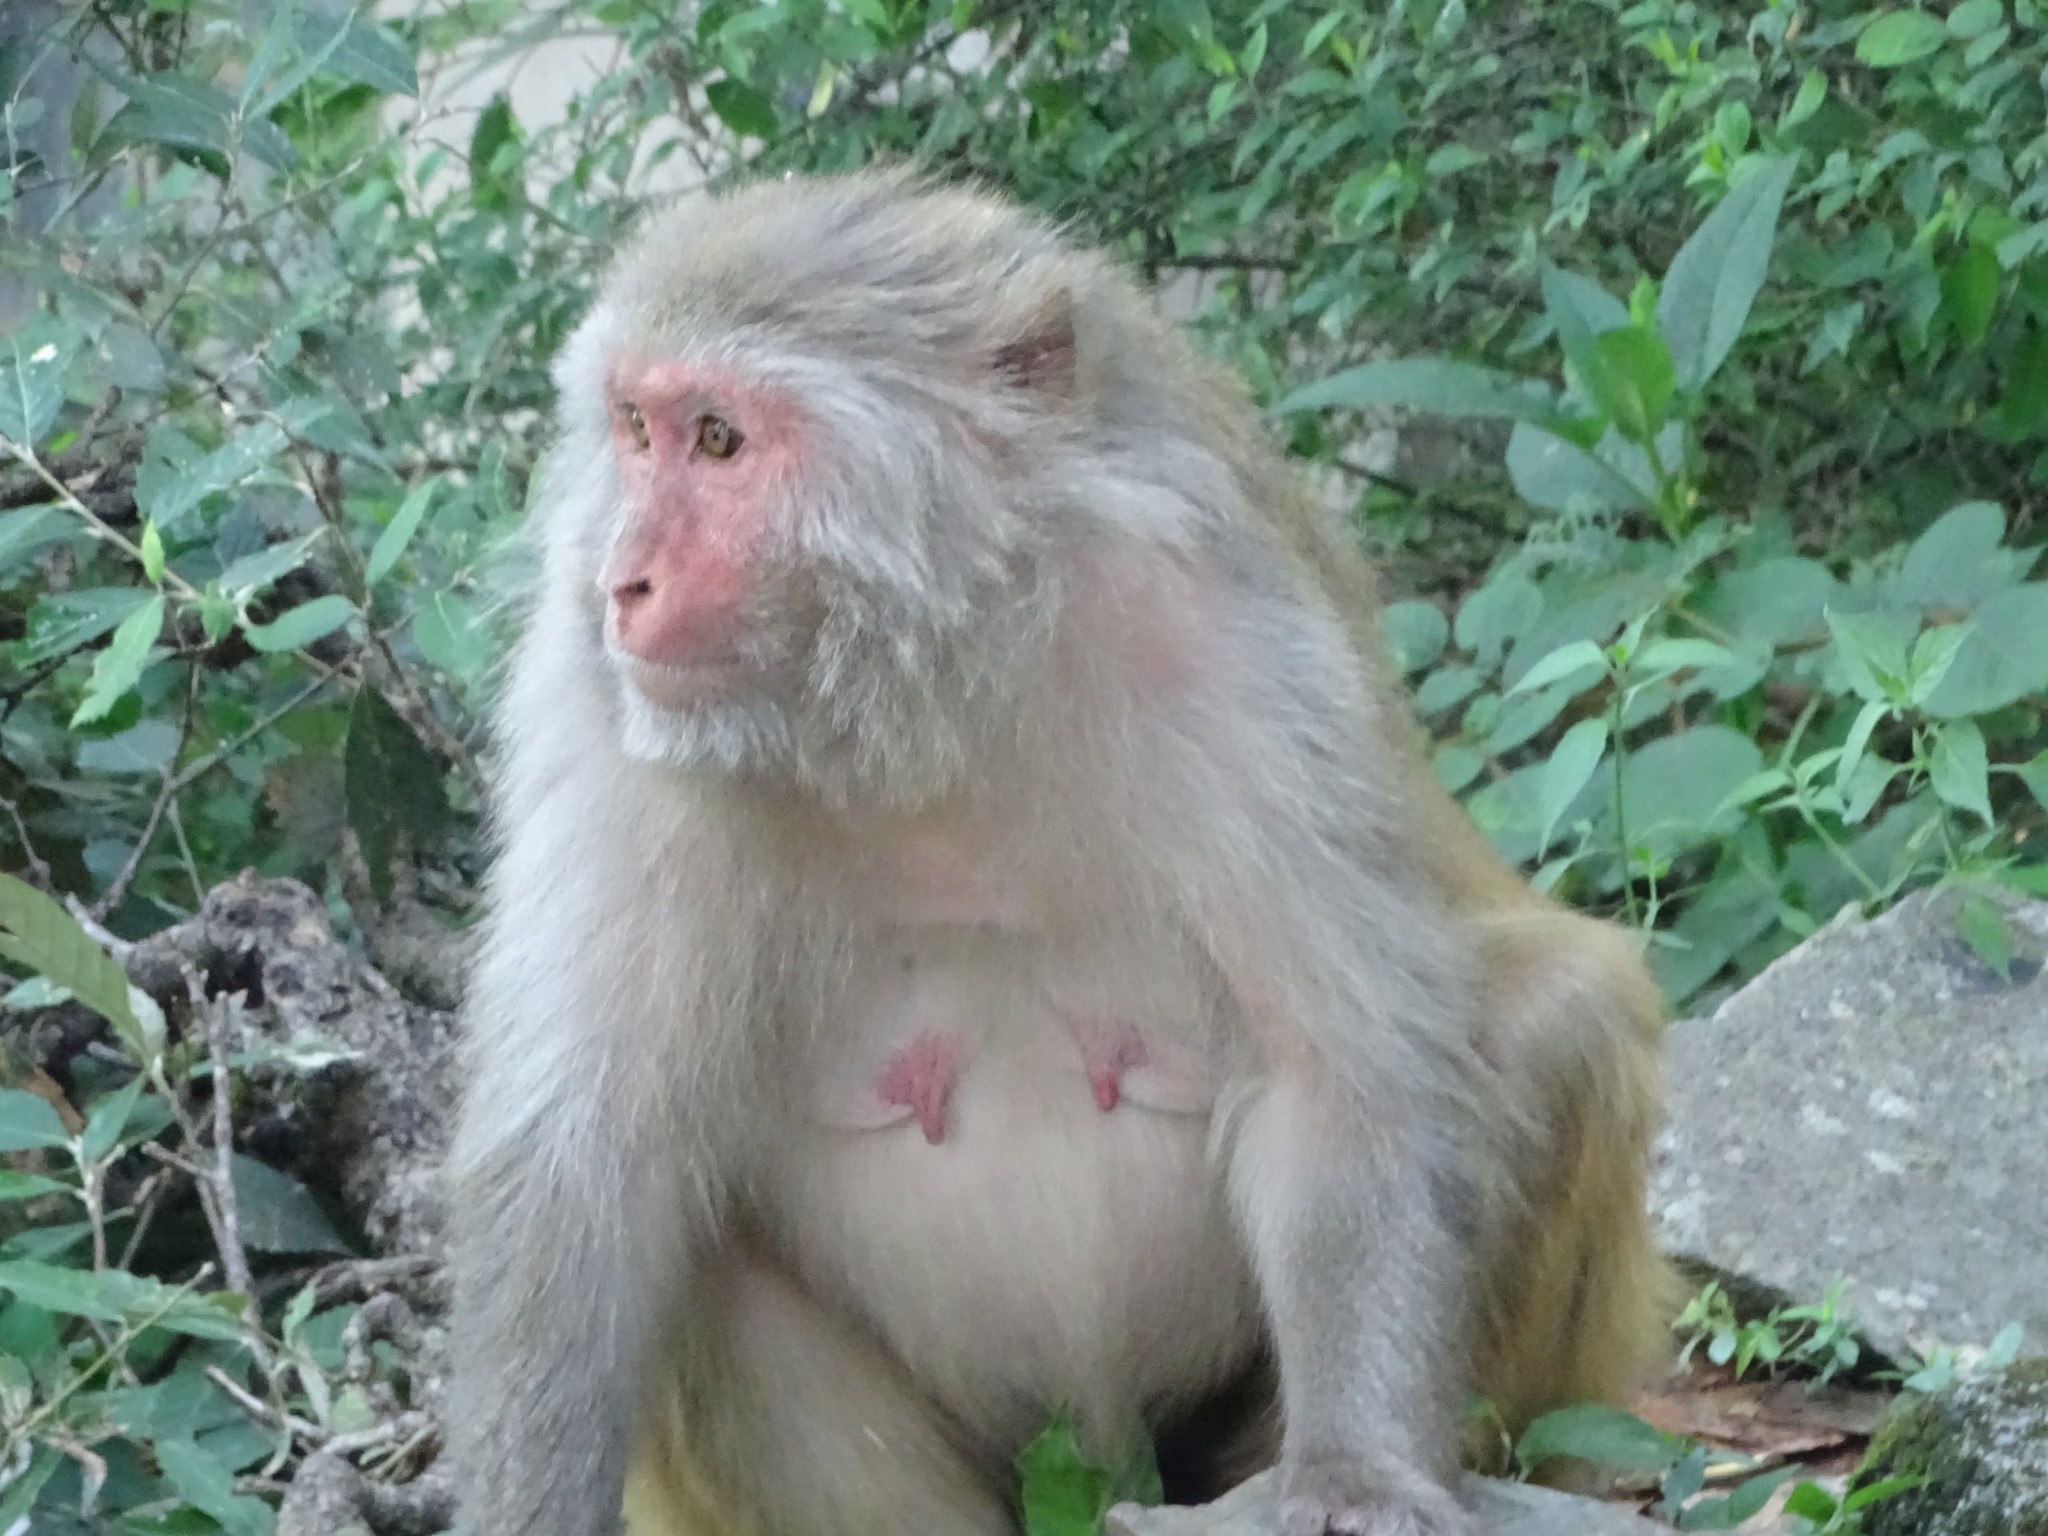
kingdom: Animalia
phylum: Chordata
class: Mammalia
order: Primates
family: Cercopithecidae
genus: Macaca
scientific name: Macaca mulatta
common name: Rhesus monkey
